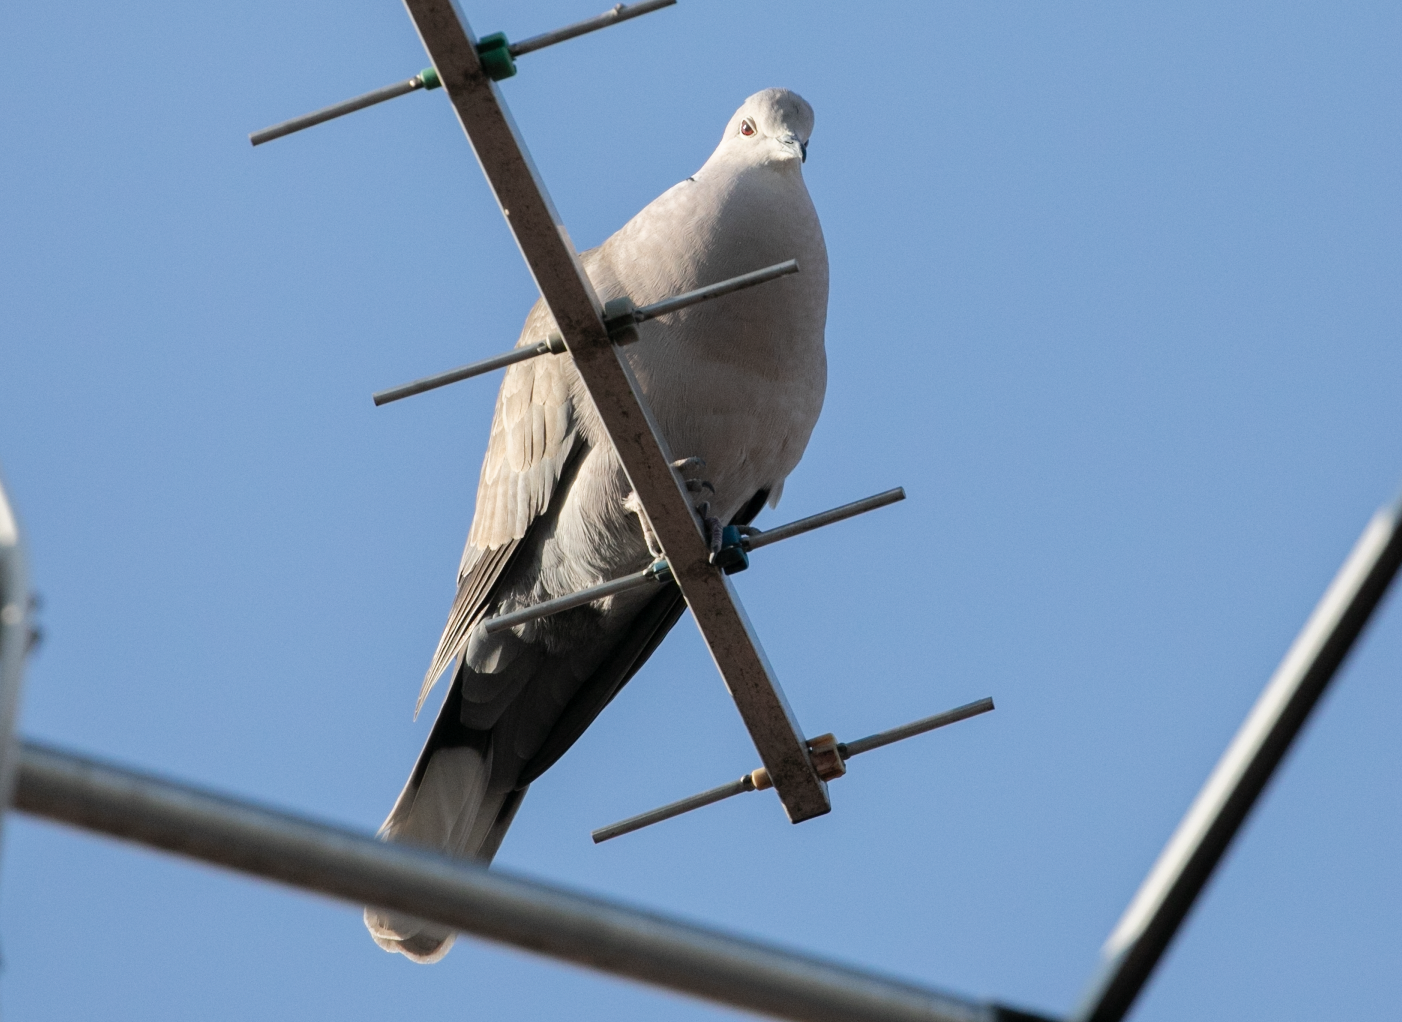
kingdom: Animalia
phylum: Chordata
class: Aves
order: Columbiformes
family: Columbidae
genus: Streptopelia
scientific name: Streptopelia decaocto
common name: Eurasian collared dove
